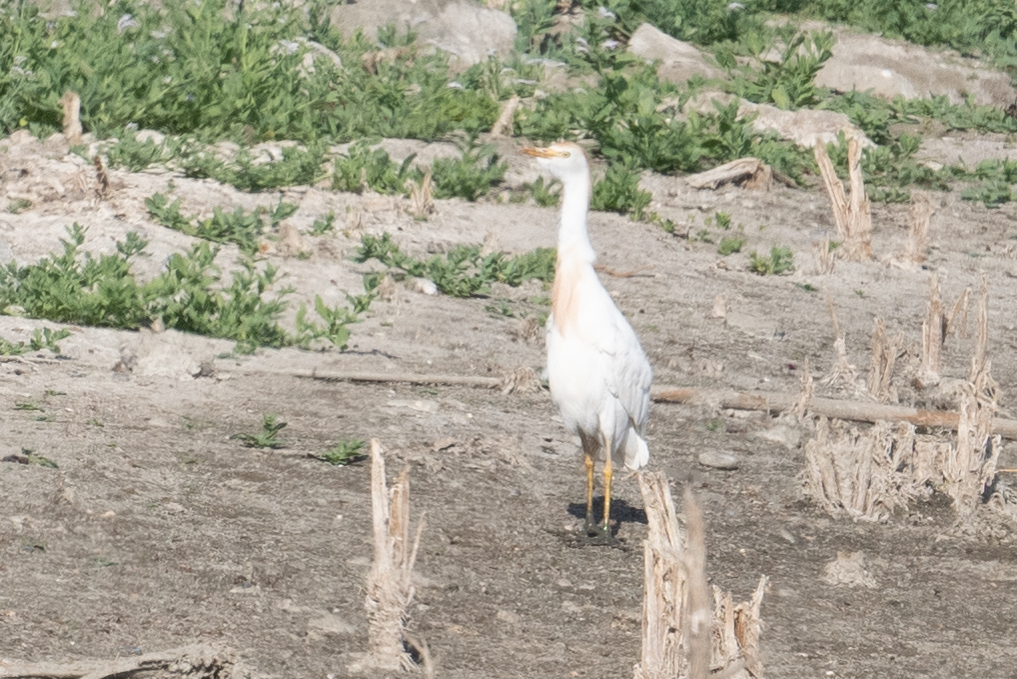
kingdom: Animalia
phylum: Chordata
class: Aves
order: Pelecaniformes
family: Ardeidae
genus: Bubulcus
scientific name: Bubulcus ibis
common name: Cattle egret
